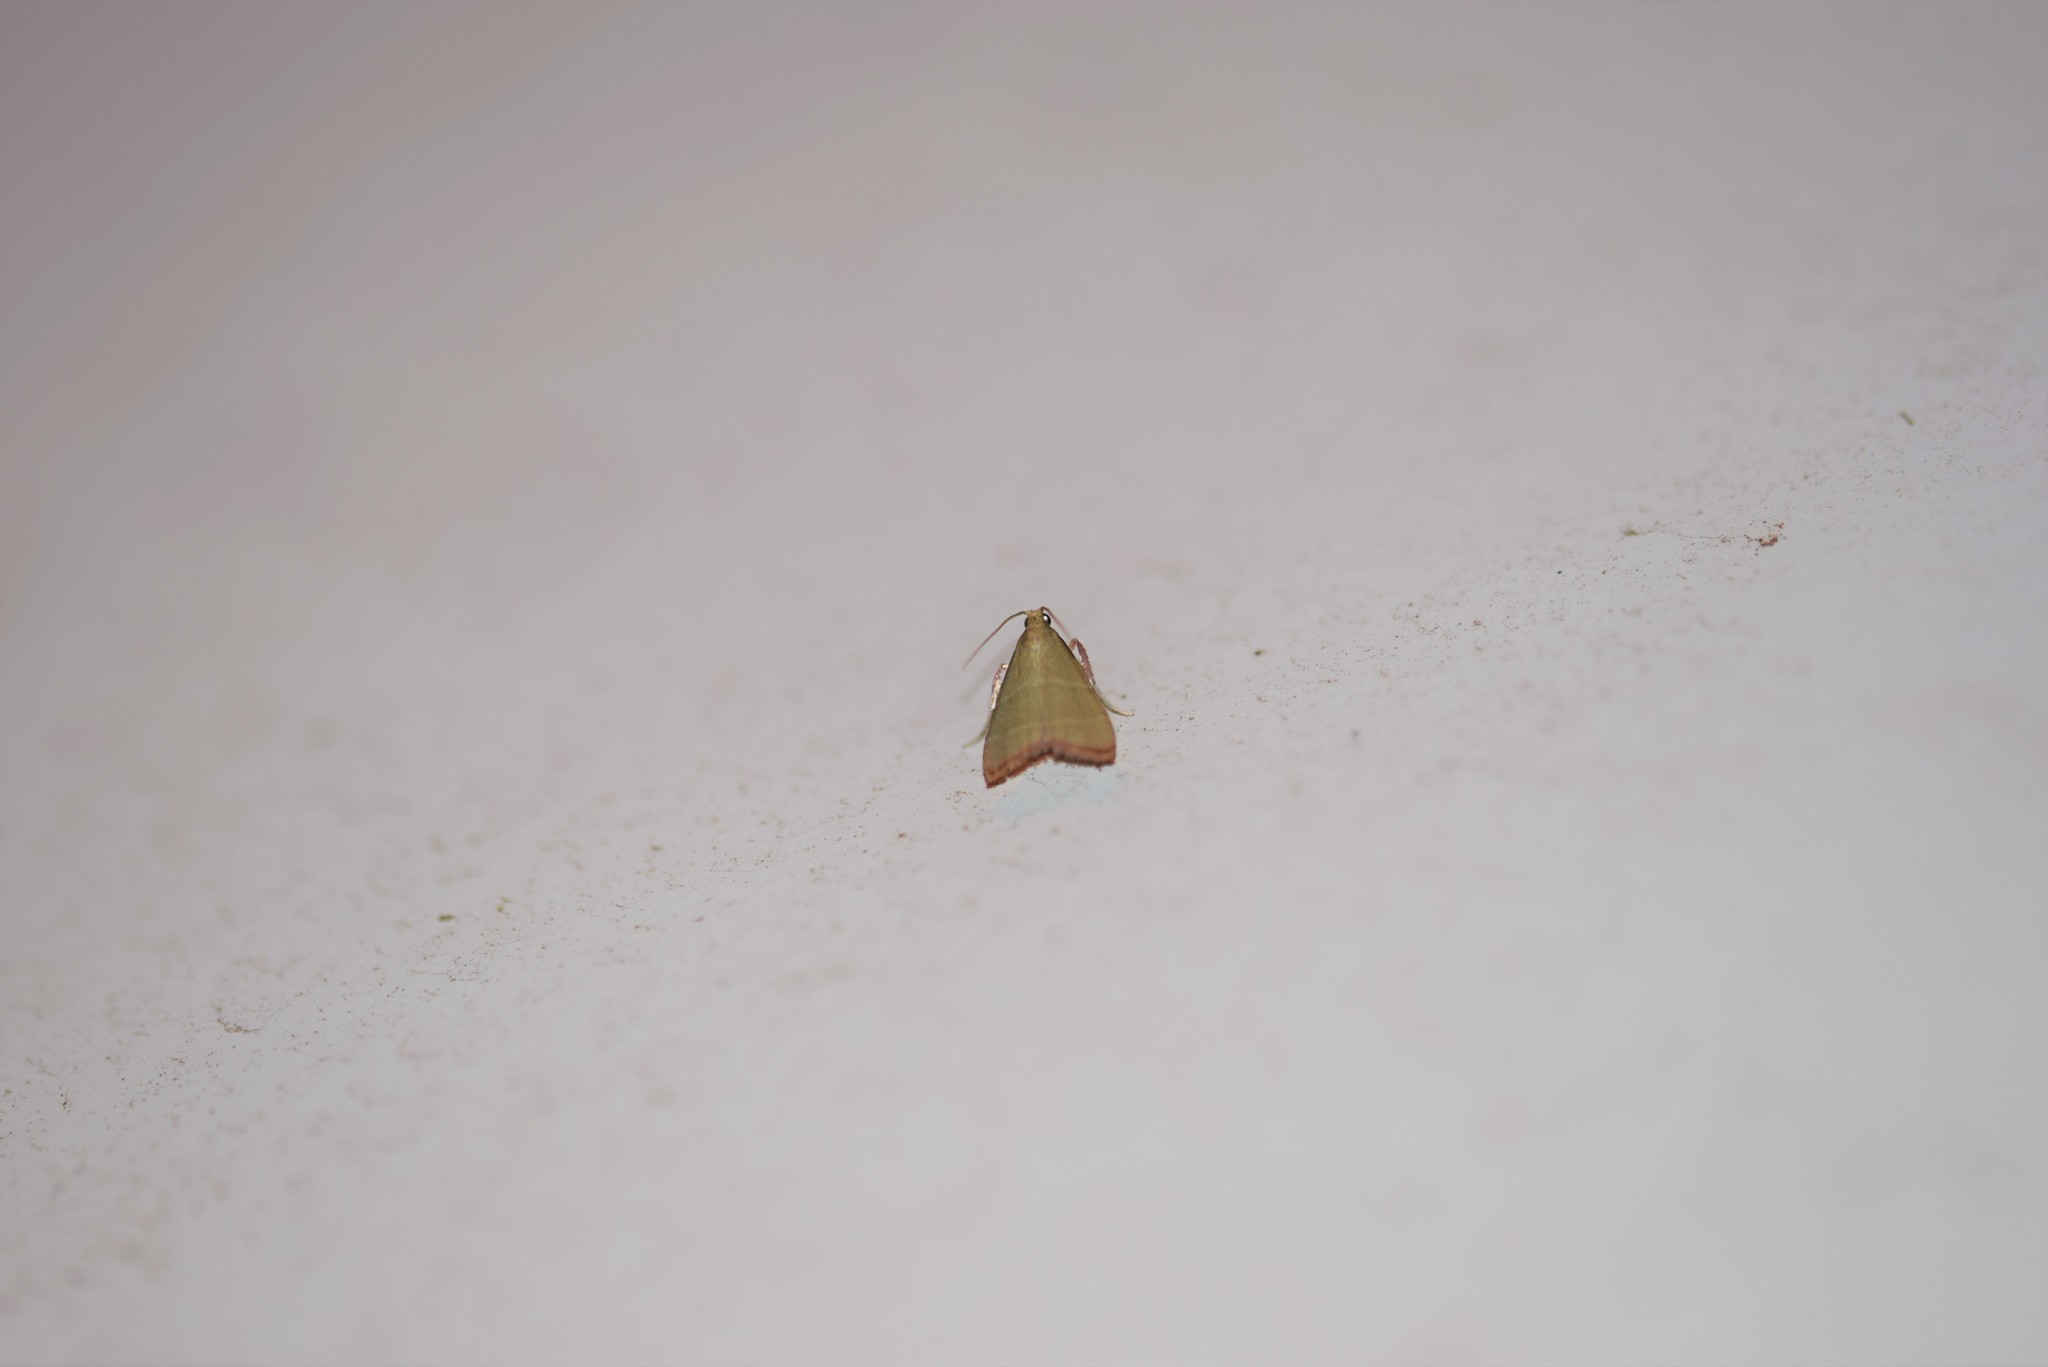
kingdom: Animalia
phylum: Arthropoda
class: Insecta
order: Lepidoptera
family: Pyralidae
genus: Arta
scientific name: Arta olivalis
